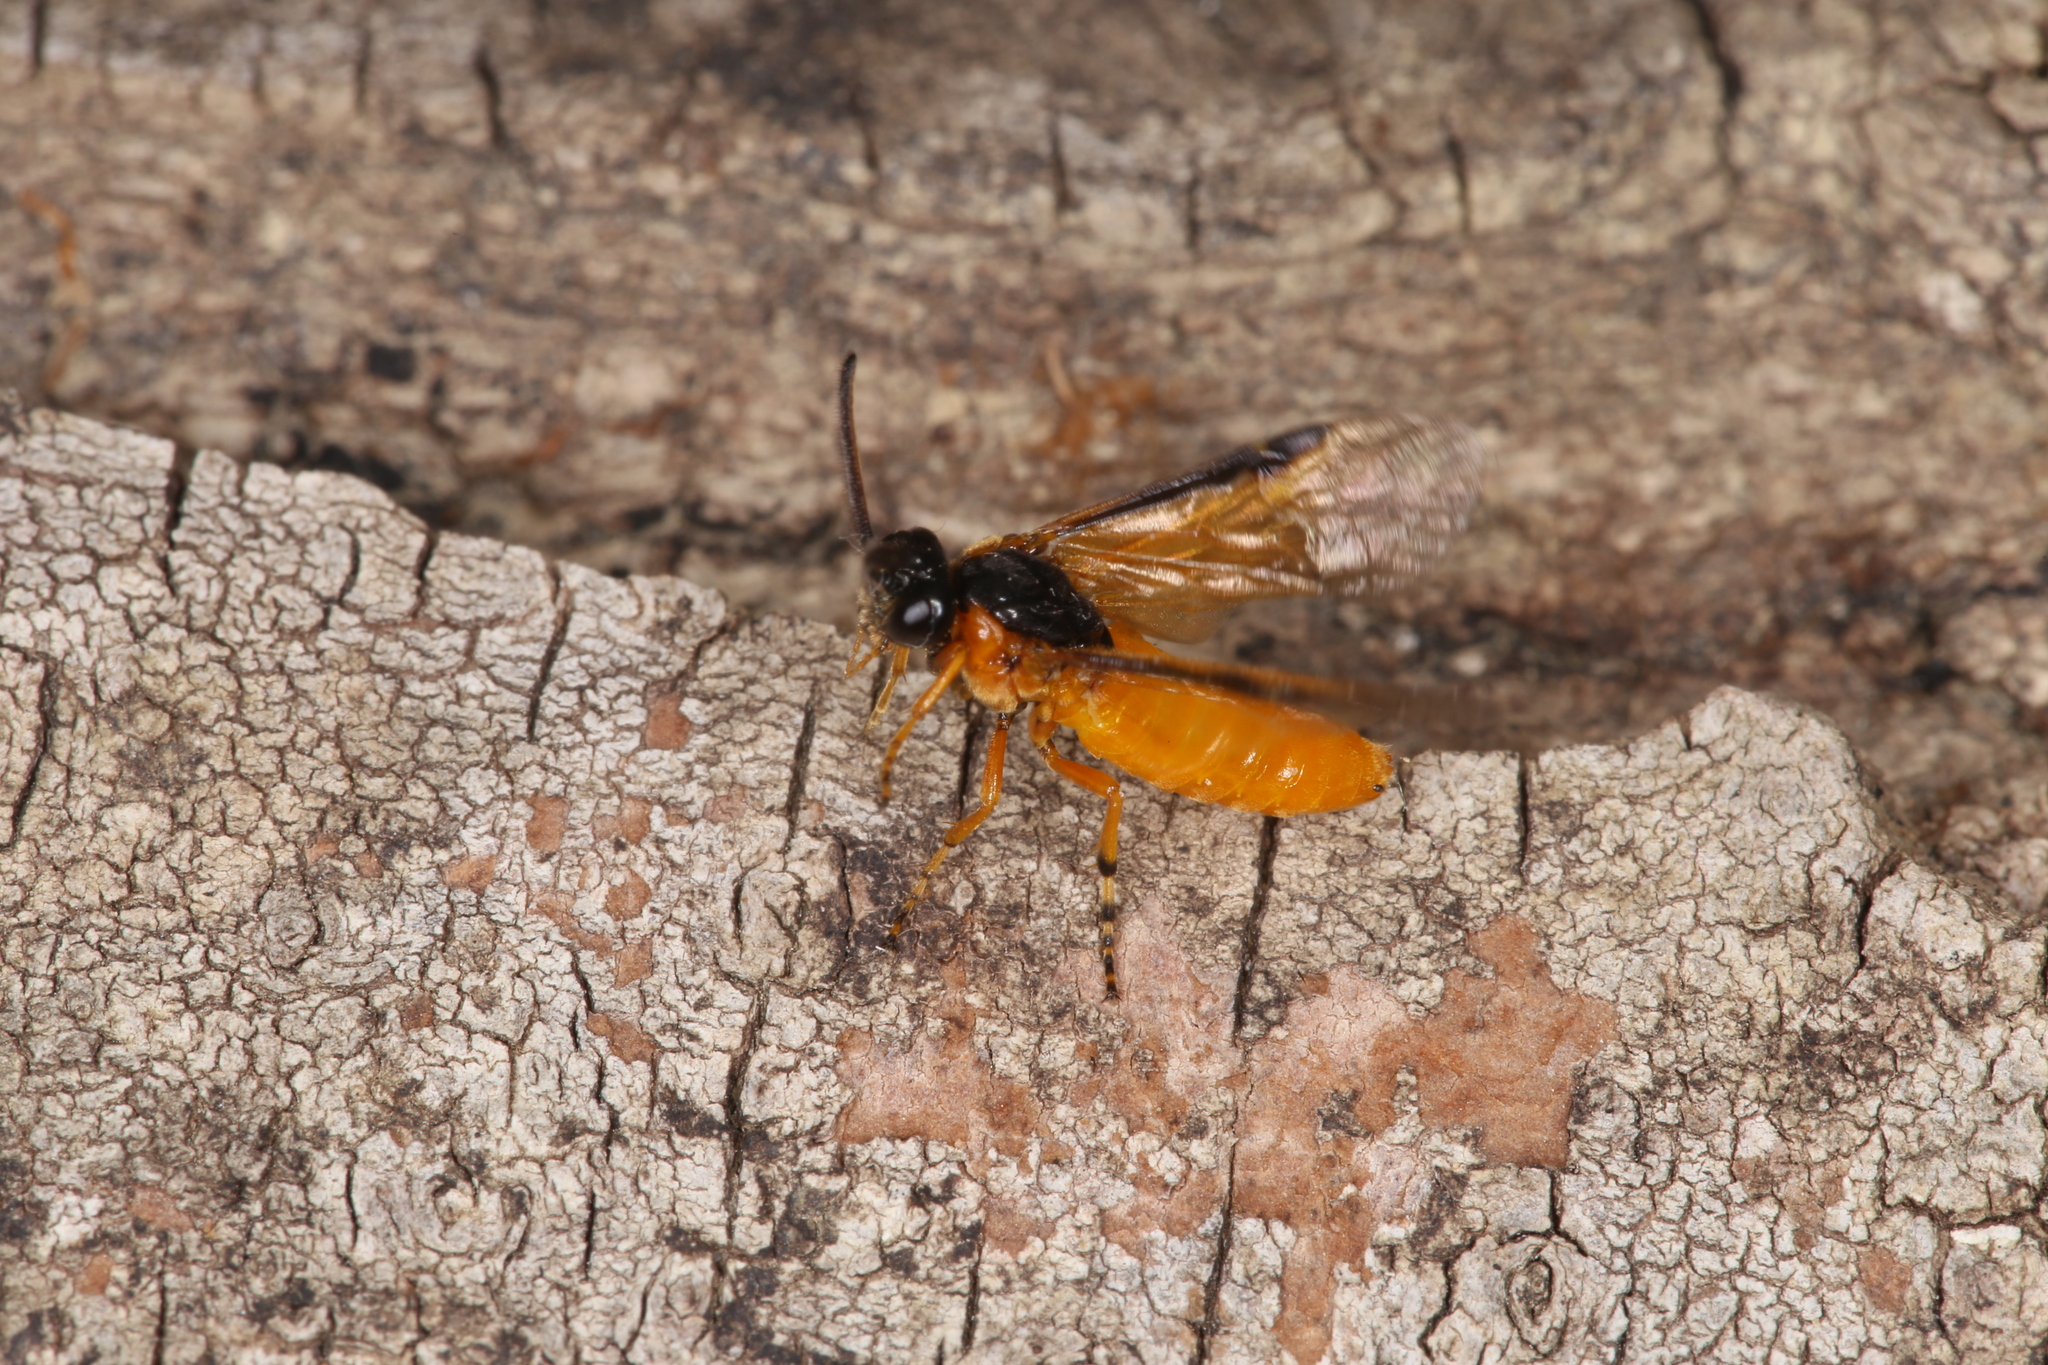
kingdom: Animalia
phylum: Arthropoda
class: Insecta
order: Hymenoptera
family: Argidae
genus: Arge
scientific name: Arge ochropus
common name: Argid sawfly
